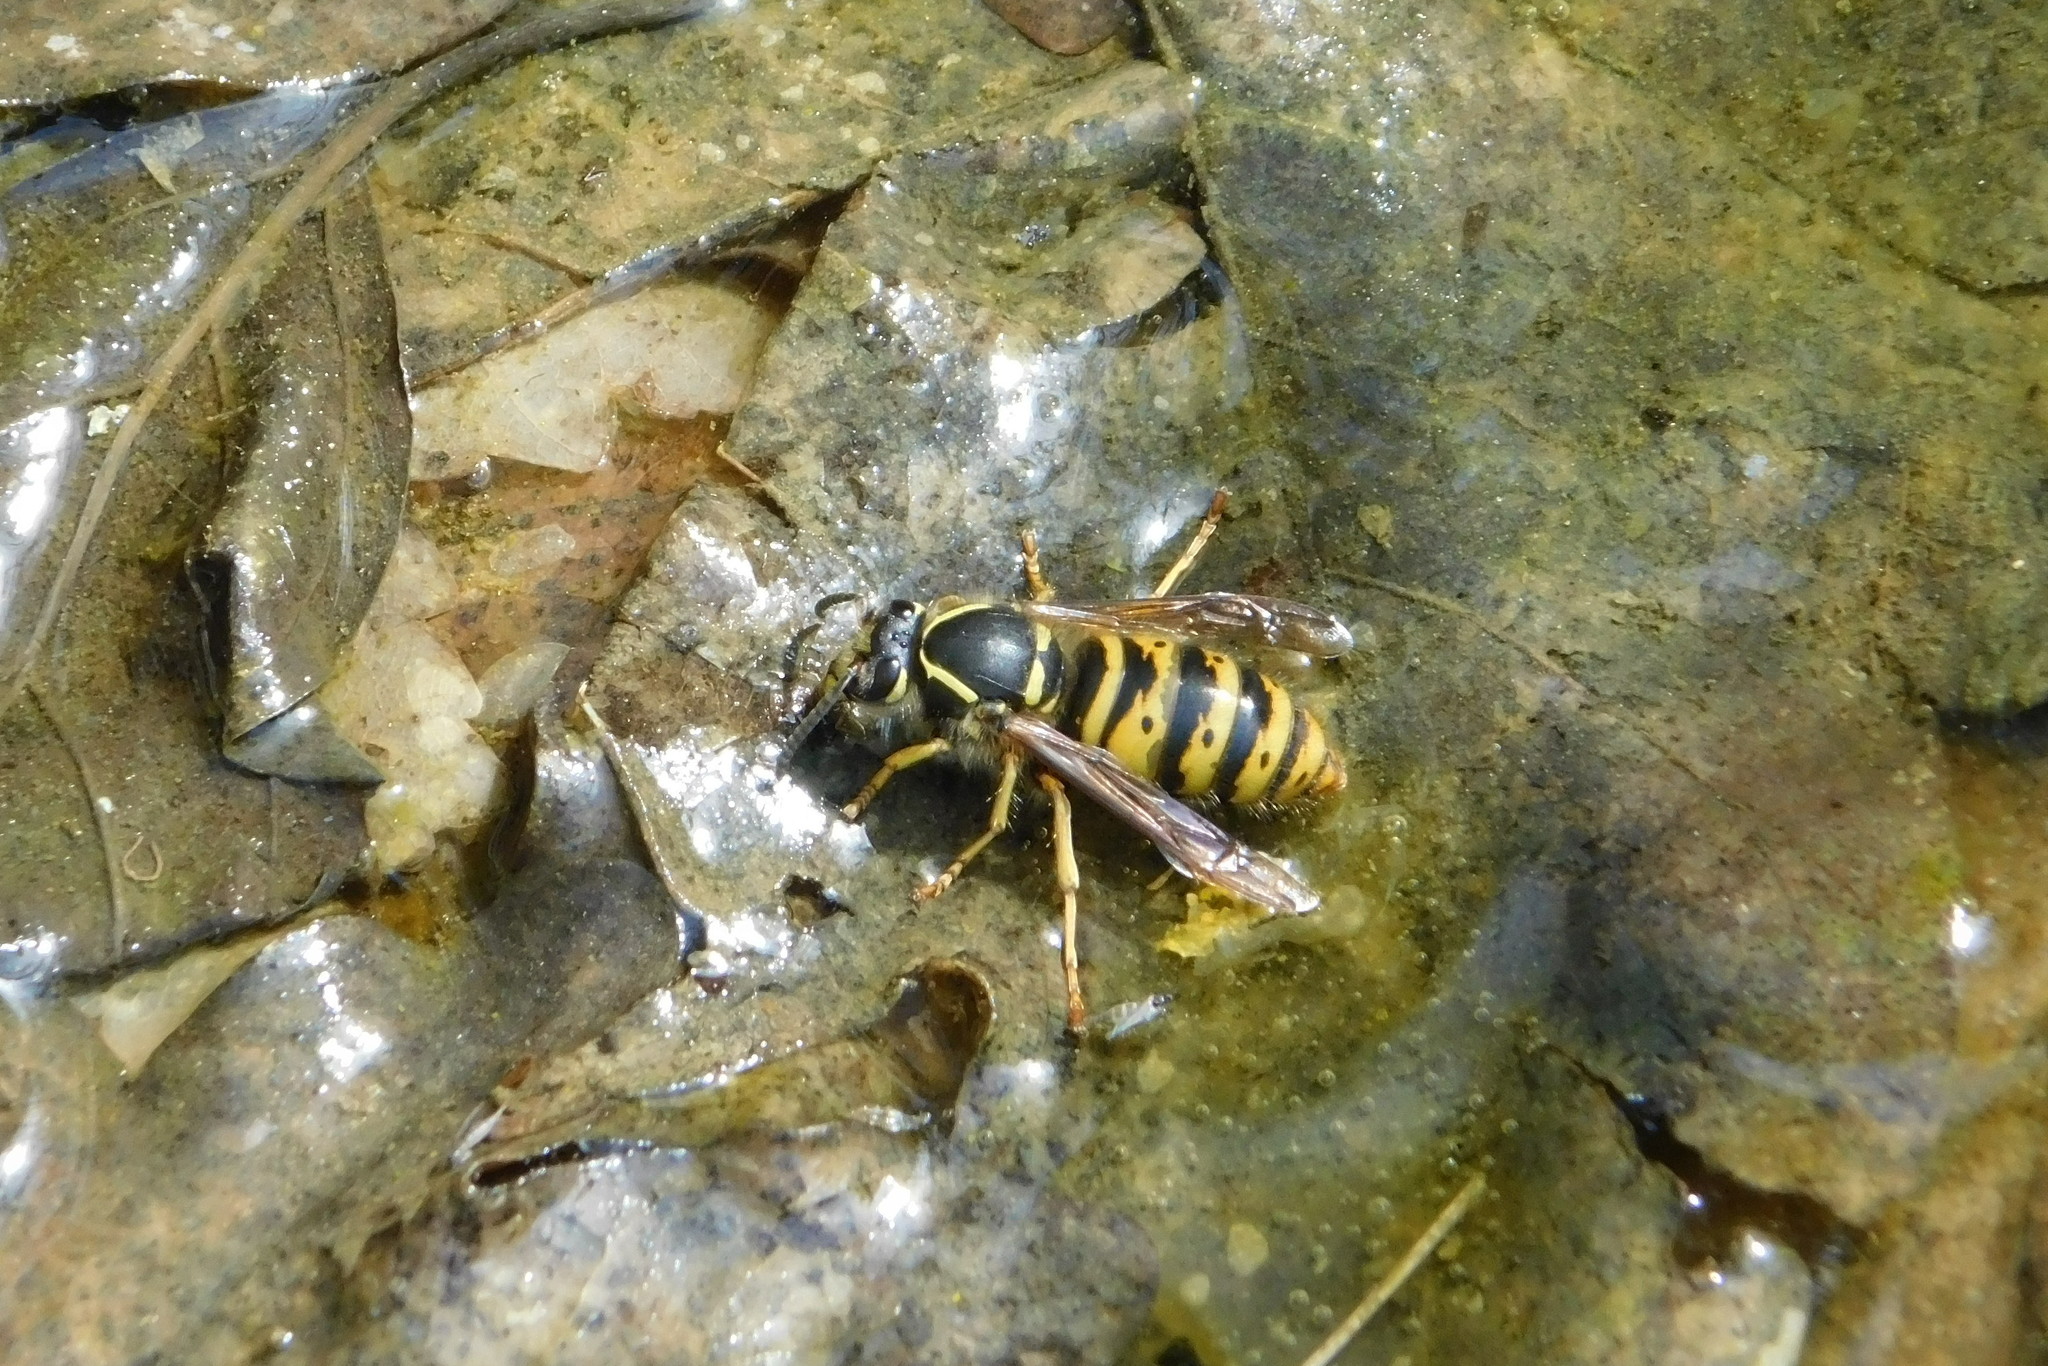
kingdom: Animalia
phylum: Arthropoda
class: Insecta
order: Hymenoptera
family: Vespidae
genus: Dolichovespula
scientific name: Dolichovespula saxonica
